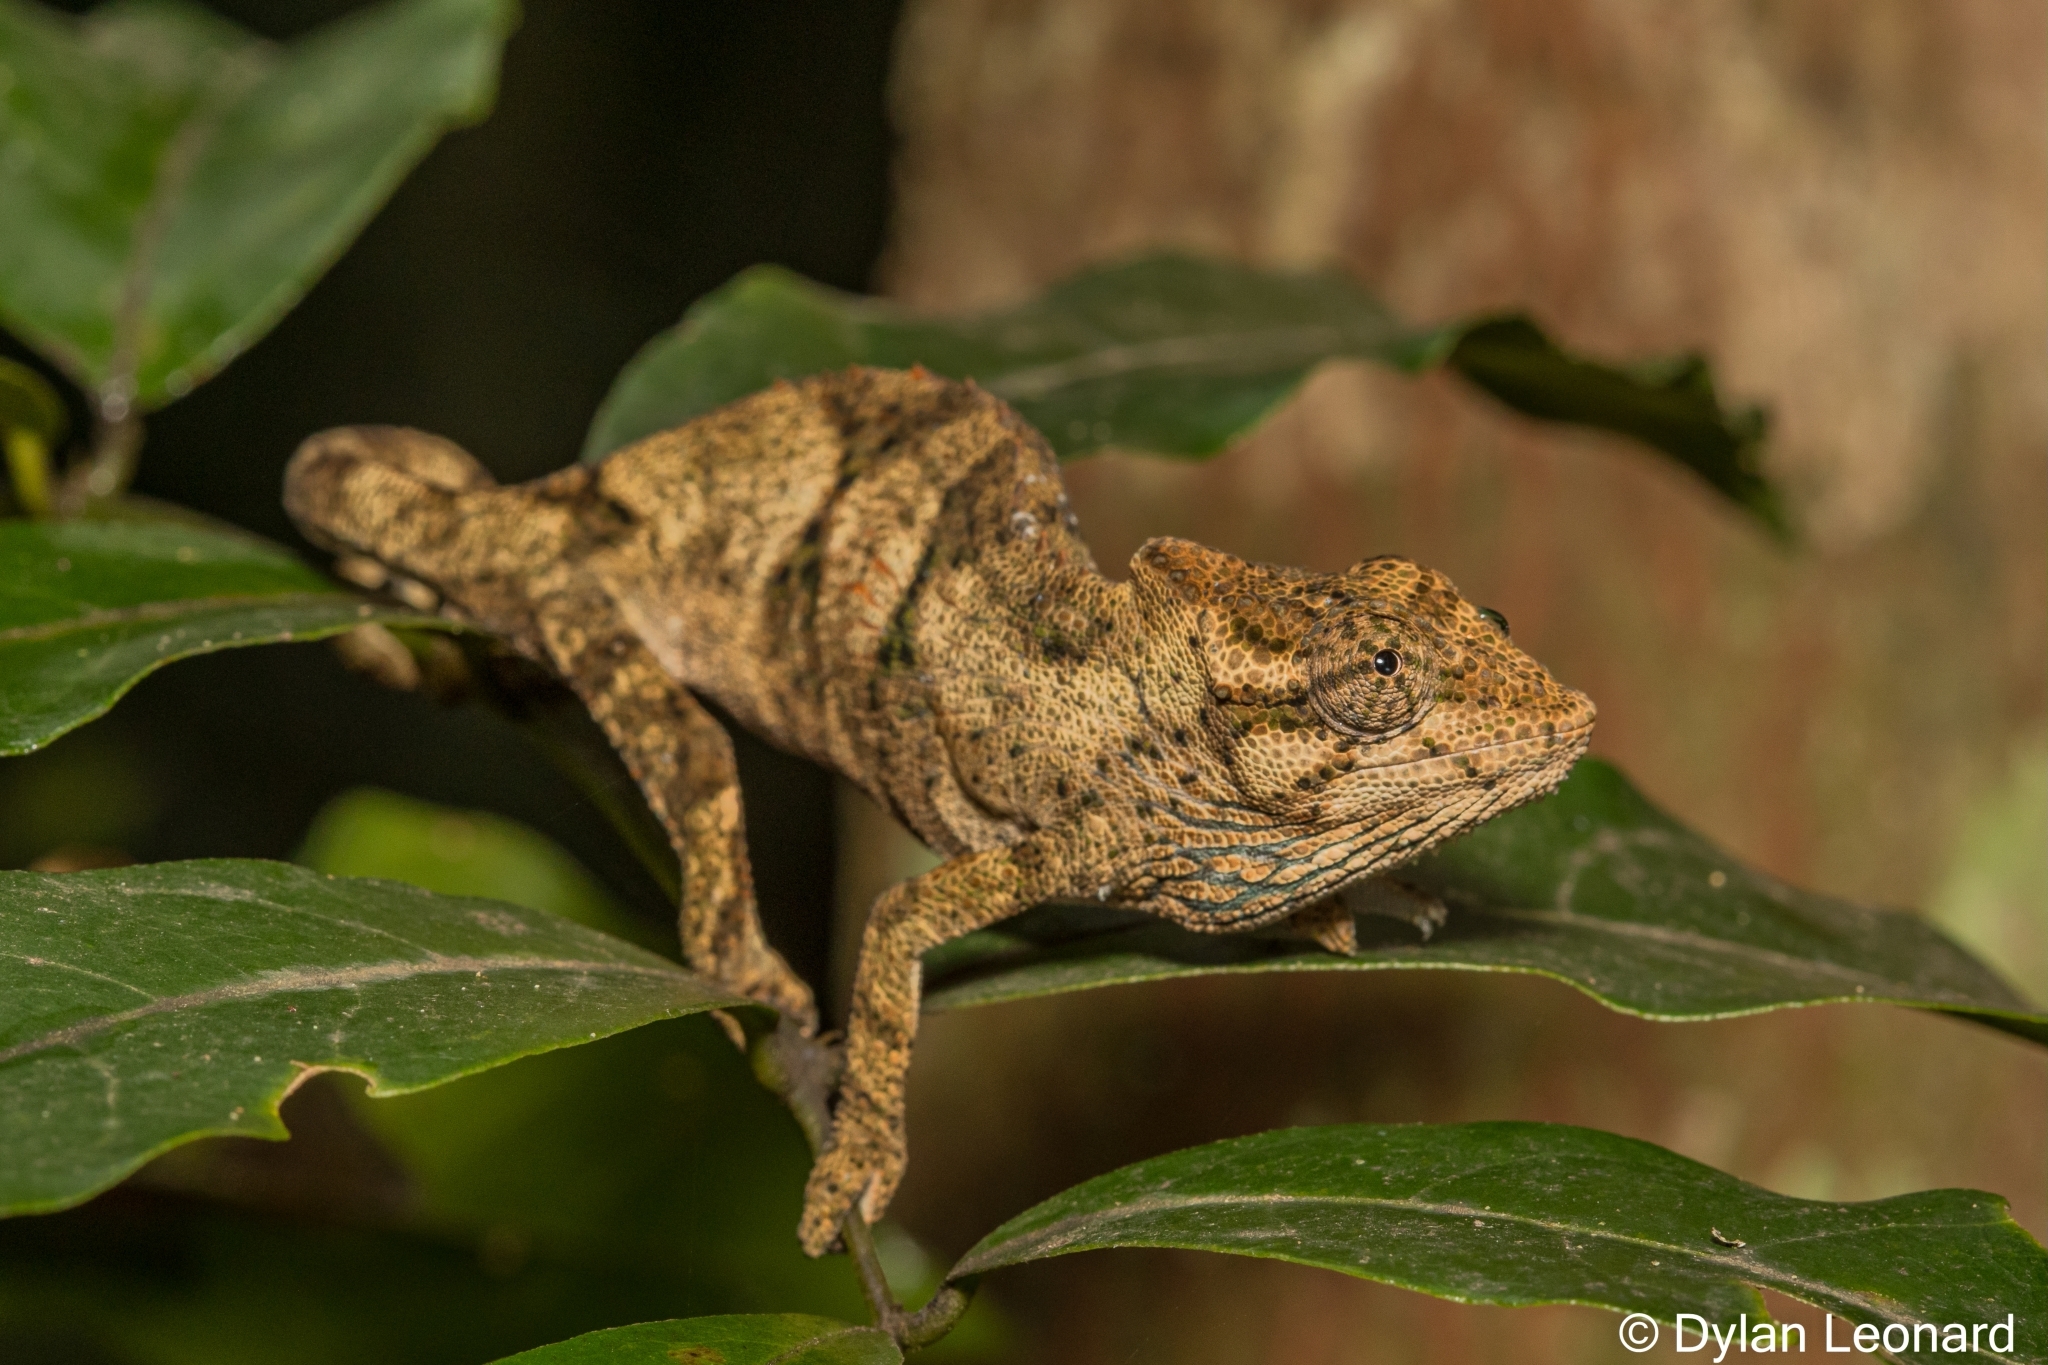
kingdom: Animalia
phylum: Chordata
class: Squamata
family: Chamaeleonidae
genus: Bradypodion
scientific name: Bradypodion caeruleogula
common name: Dhlinza dwarf chameleon
